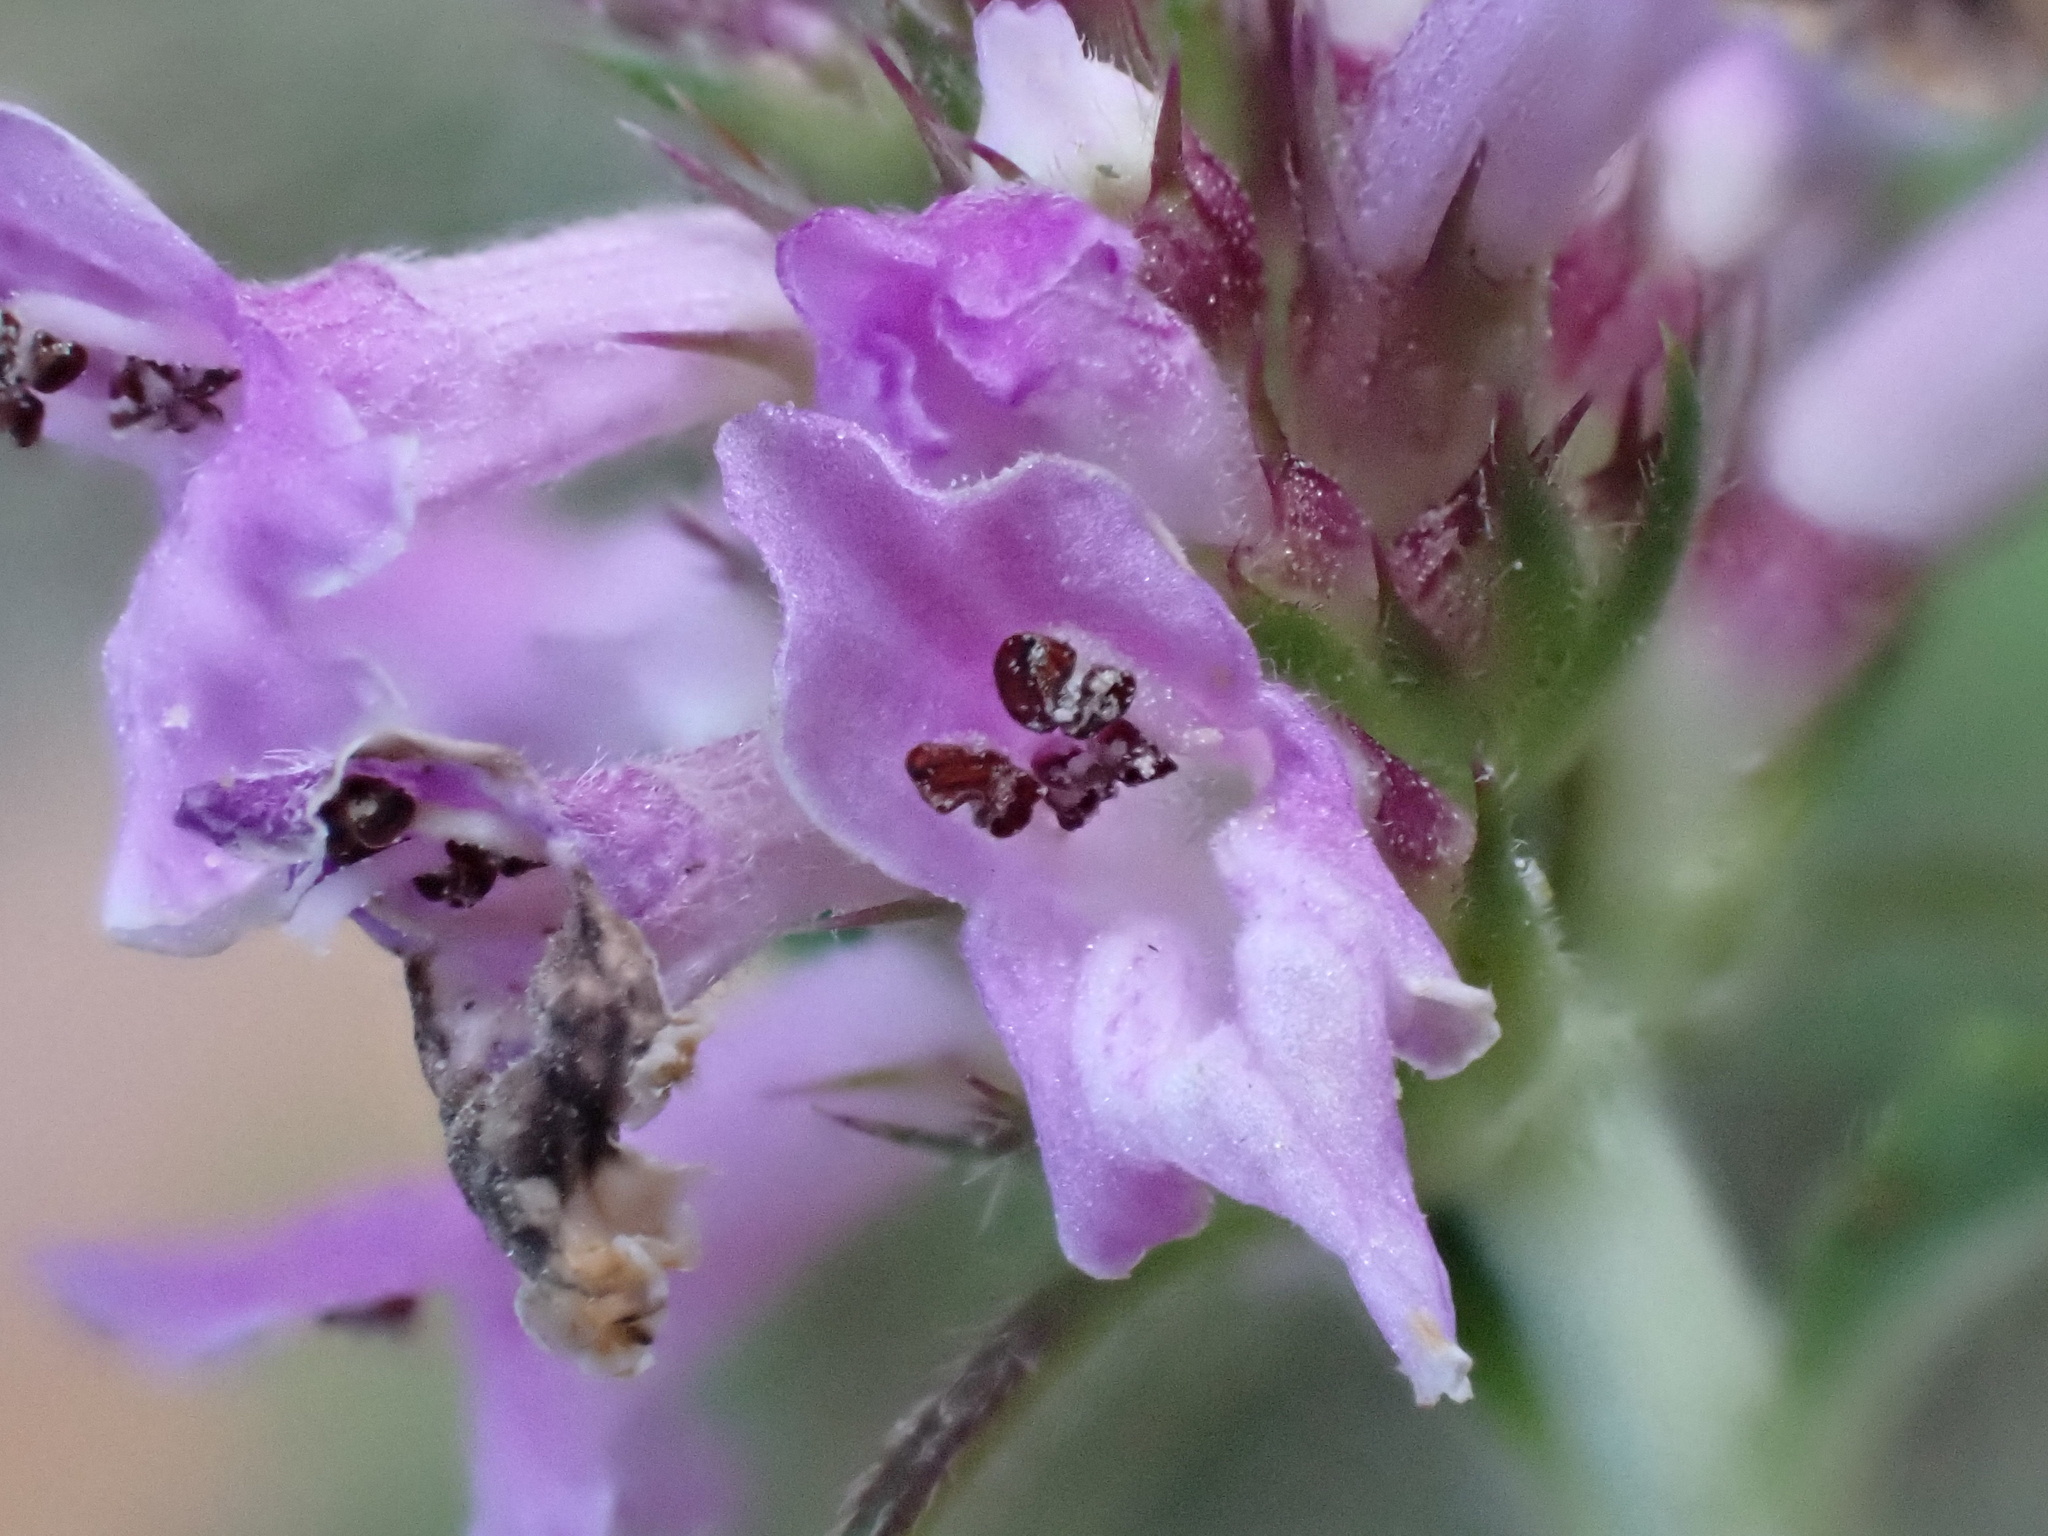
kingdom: Plantae
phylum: Tracheophyta
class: Magnoliopsida
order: Lamiales
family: Lamiaceae
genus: Betonica
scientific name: Betonica officinalis
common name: Bishop's-wort
